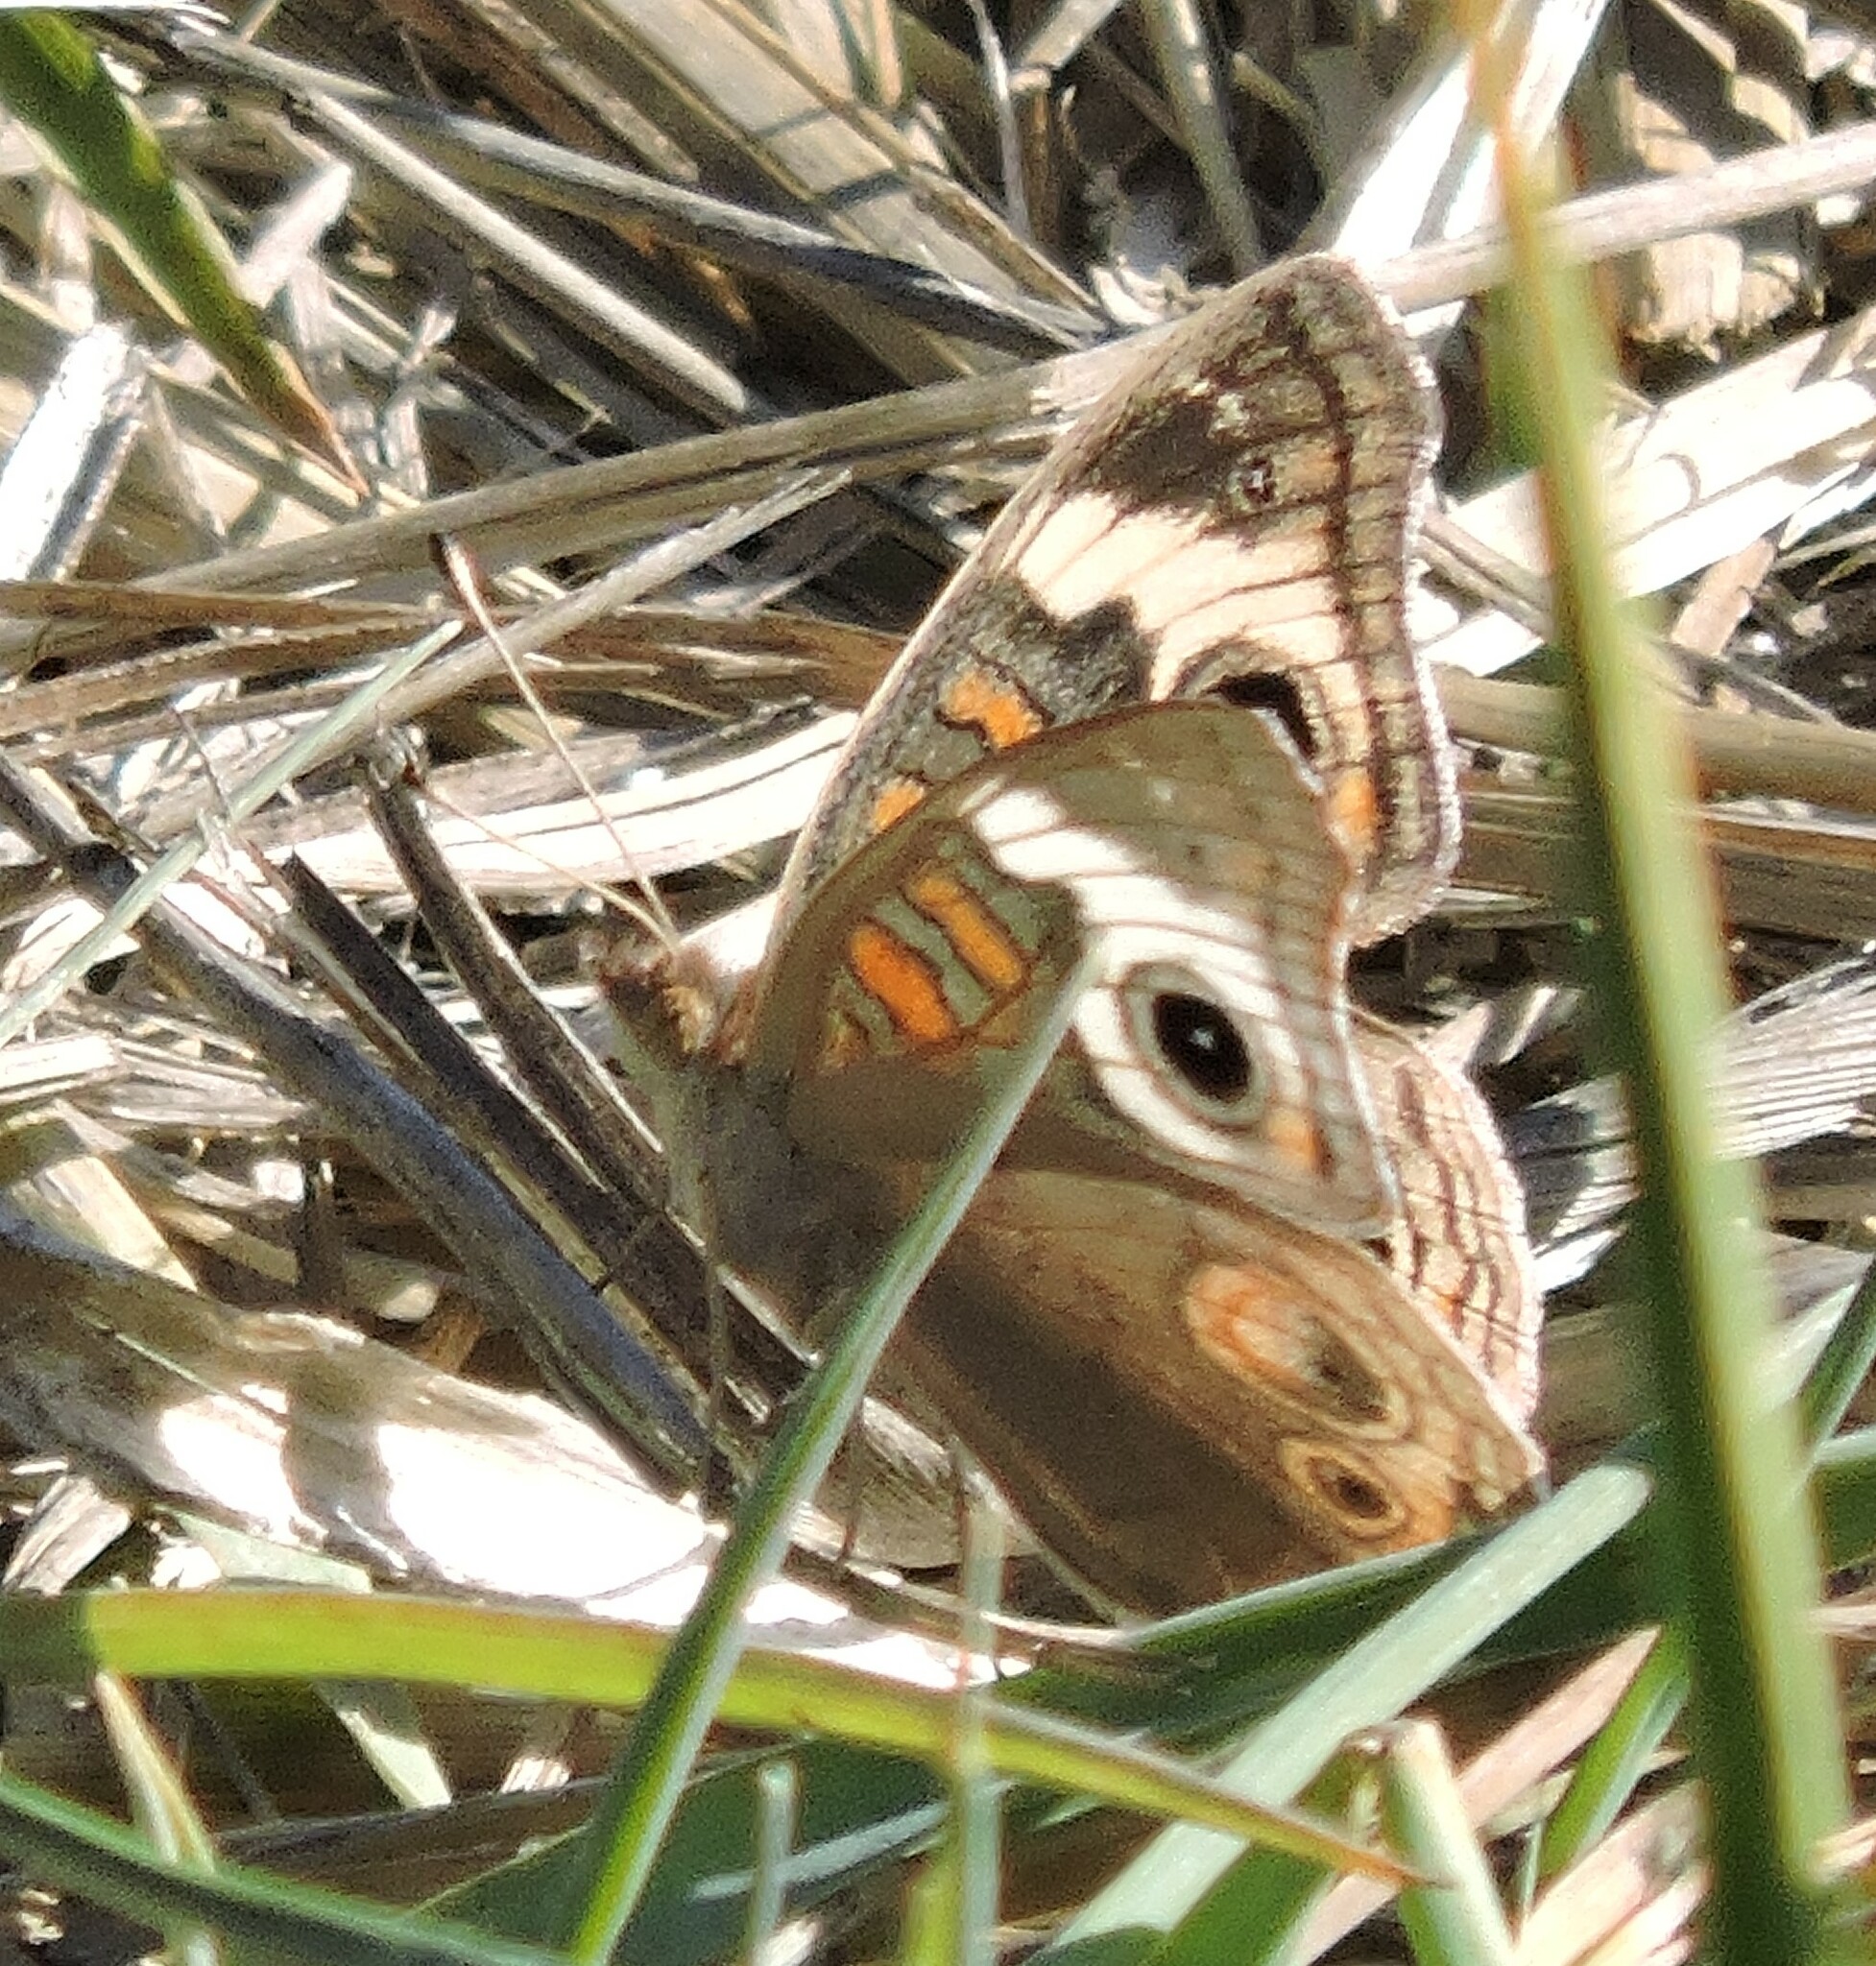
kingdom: Animalia
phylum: Arthropoda
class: Insecta
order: Lepidoptera
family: Nymphalidae
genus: Junonia
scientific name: Junonia grisea
